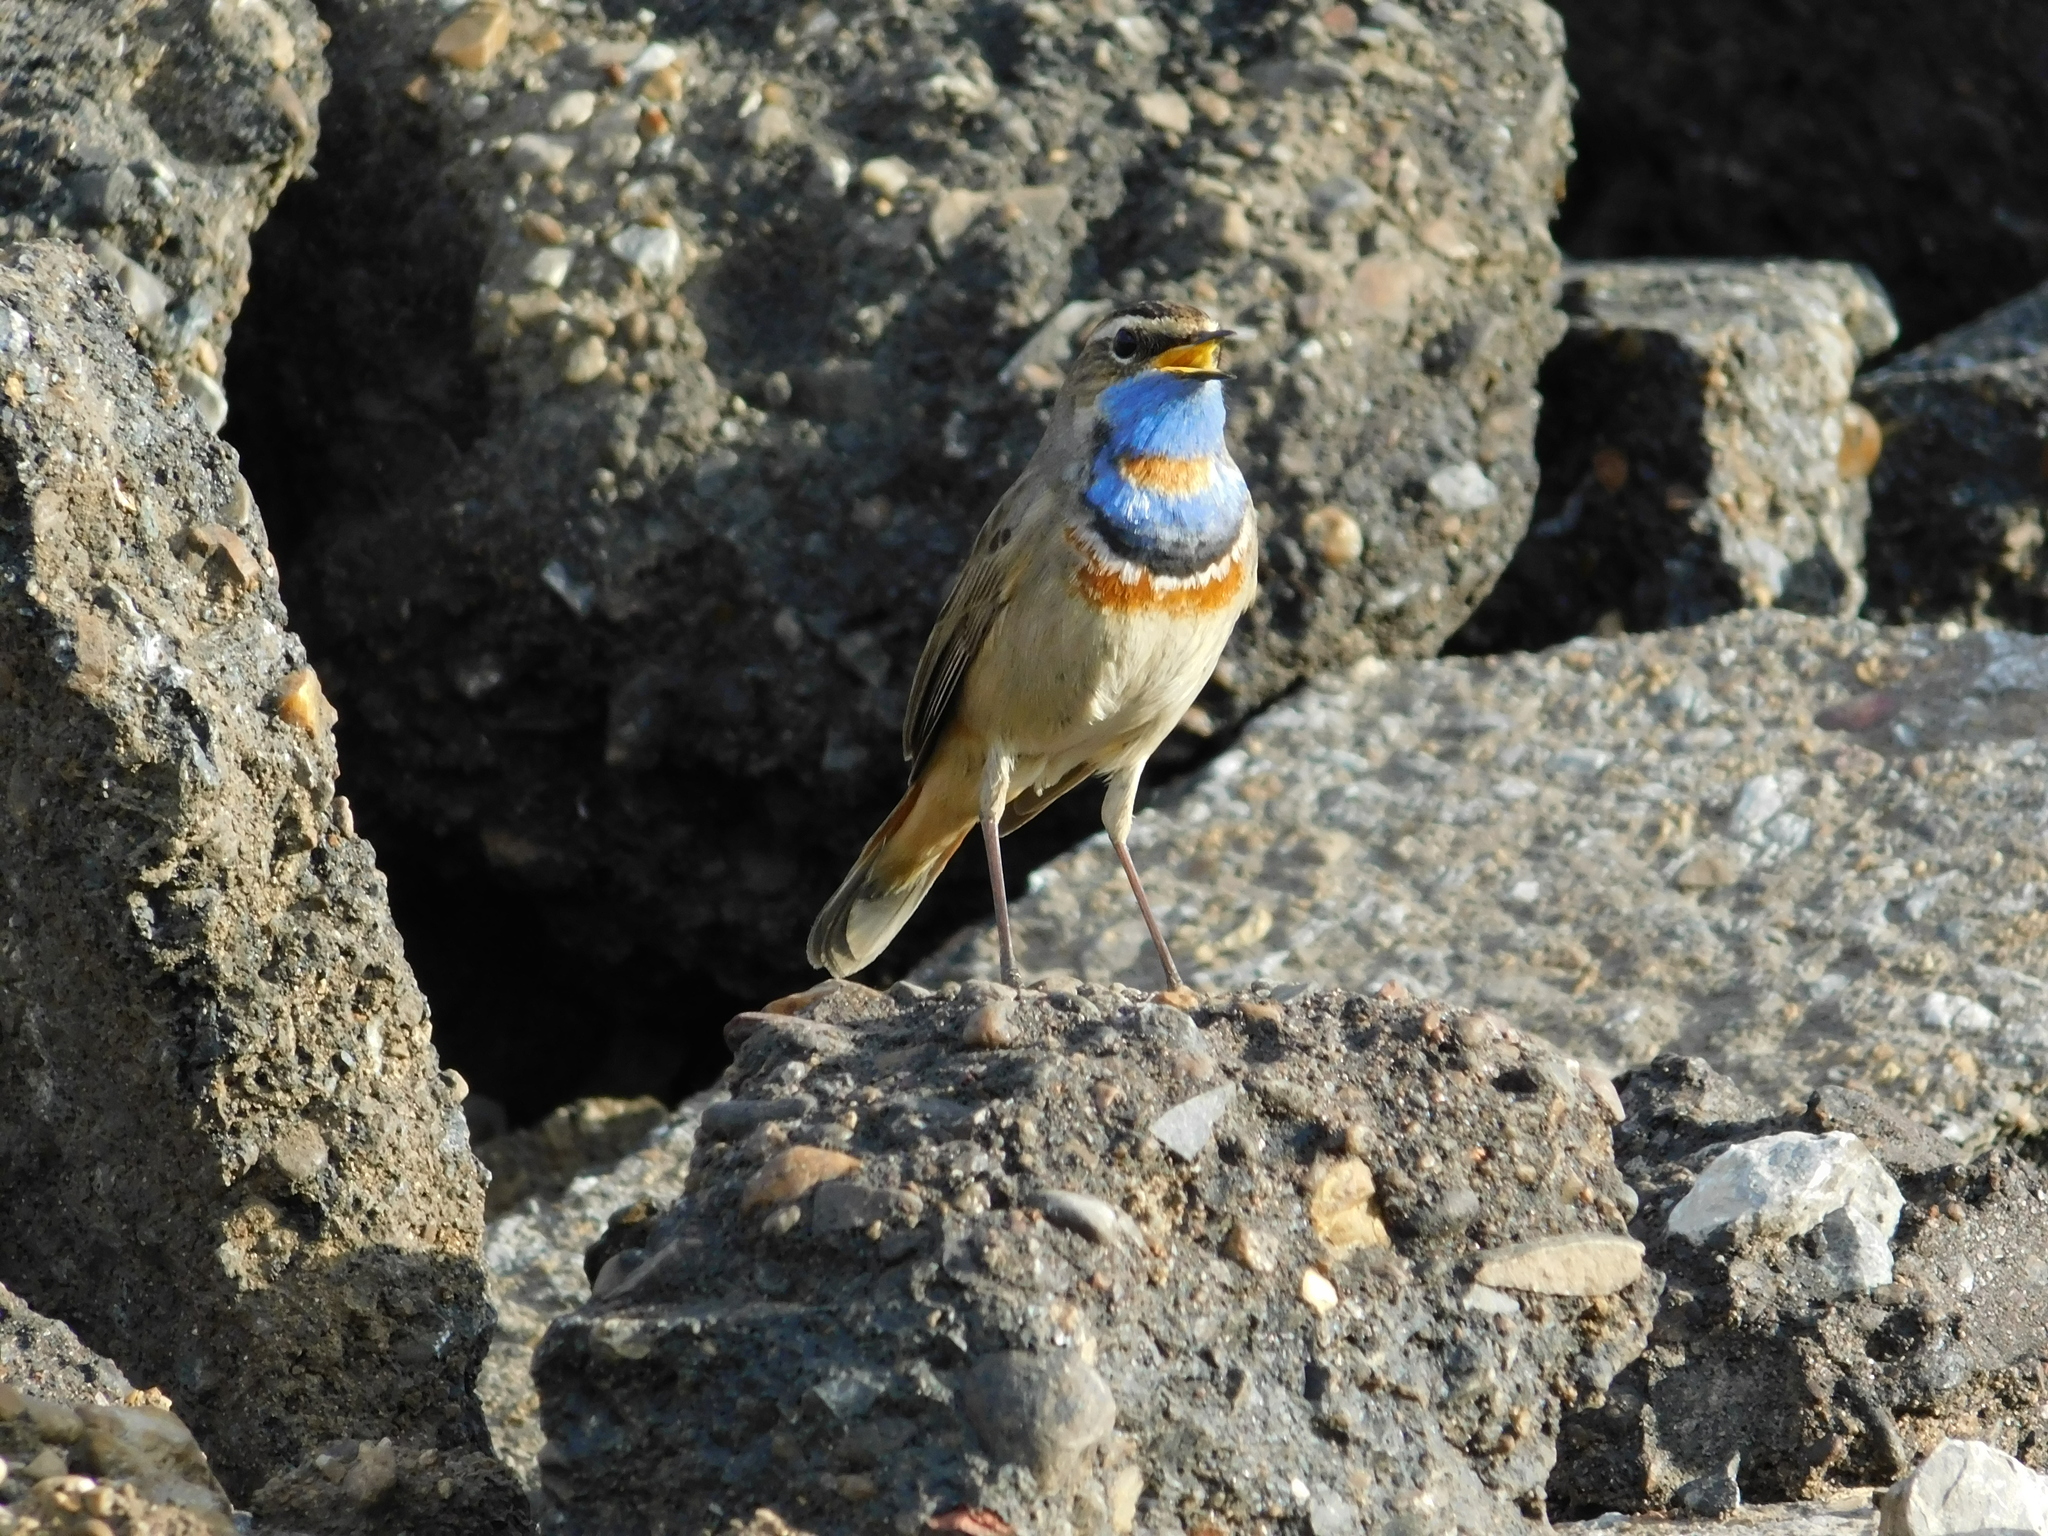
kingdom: Animalia
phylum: Chordata
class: Aves
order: Passeriformes
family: Muscicapidae
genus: Luscinia
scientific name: Luscinia svecica
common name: Bluethroat
